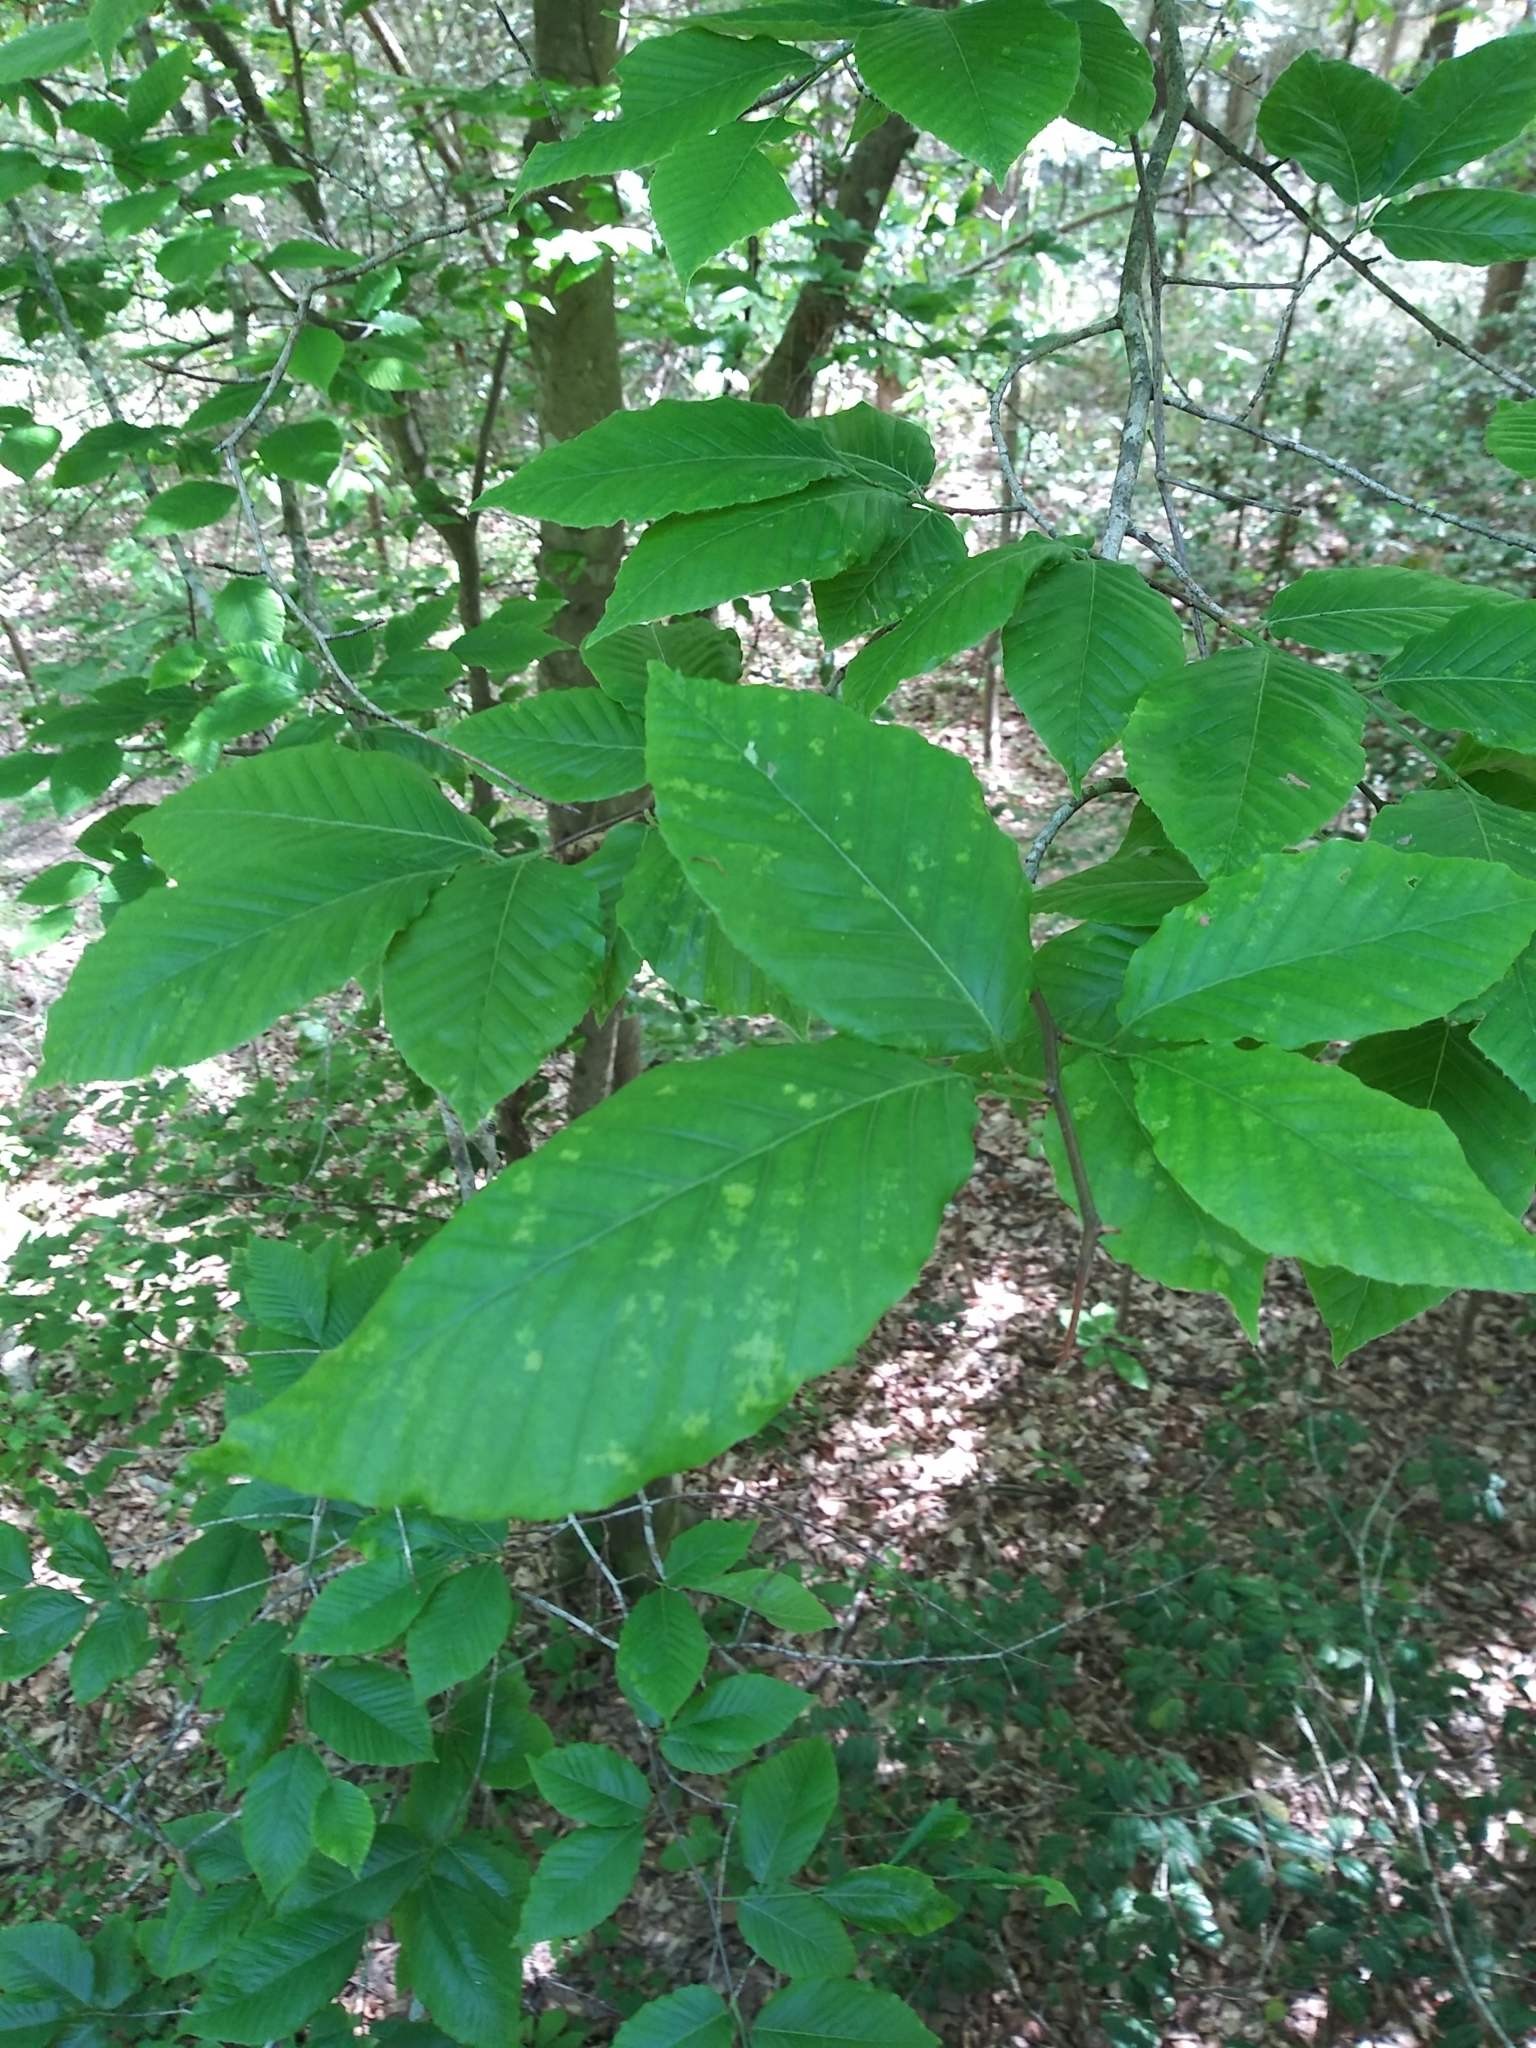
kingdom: Plantae
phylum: Tracheophyta
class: Magnoliopsida
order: Fagales
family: Fagaceae
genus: Fagus
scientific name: Fagus grandifolia
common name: American beech
